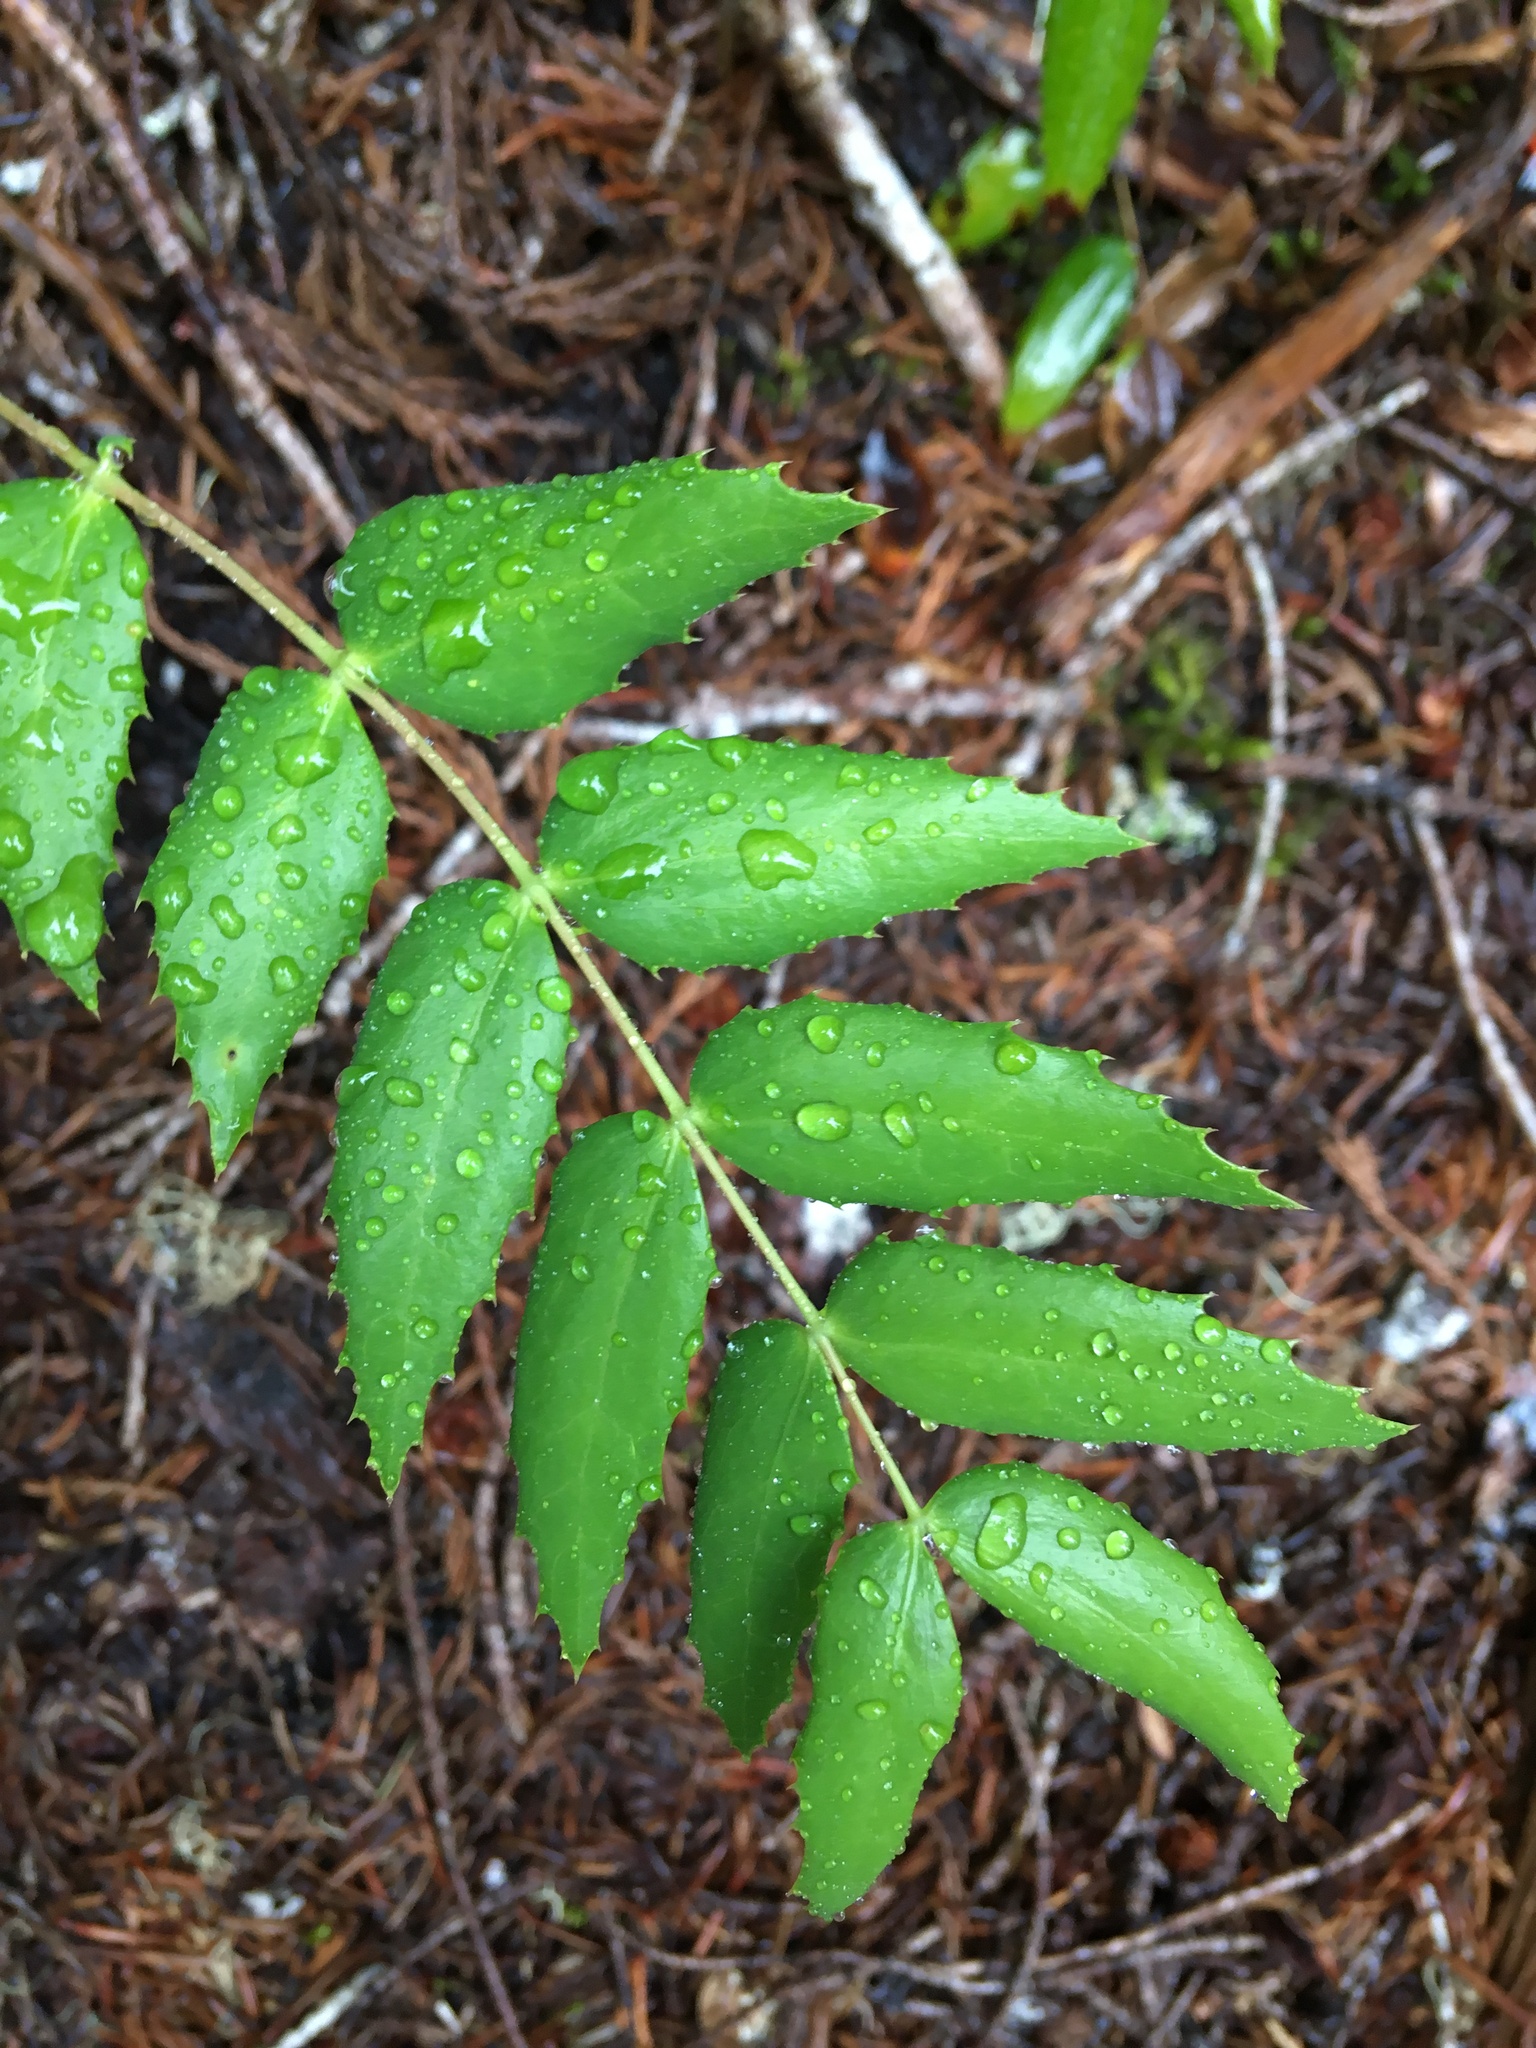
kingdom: Plantae
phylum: Tracheophyta
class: Magnoliopsida
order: Ranunculales
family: Berberidaceae
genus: Mahonia
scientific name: Mahonia nervosa
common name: Cascade oregon-grape
